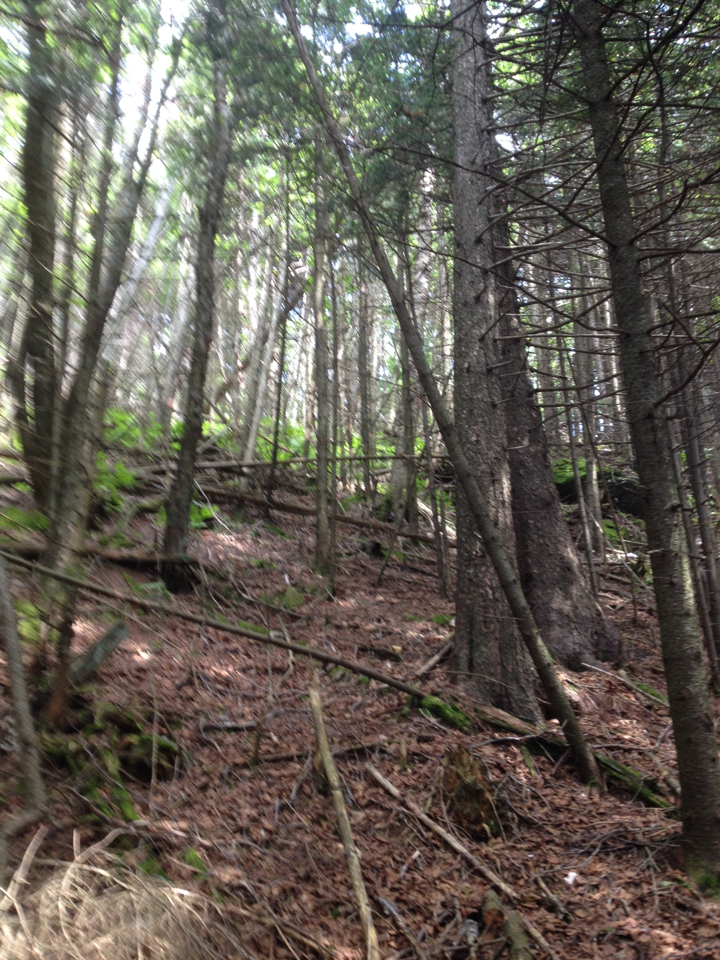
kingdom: Plantae
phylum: Tracheophyta
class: Pinopsida
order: Pinales
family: Pinaceae
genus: Picea
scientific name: Picea rubens
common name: Red spruce
